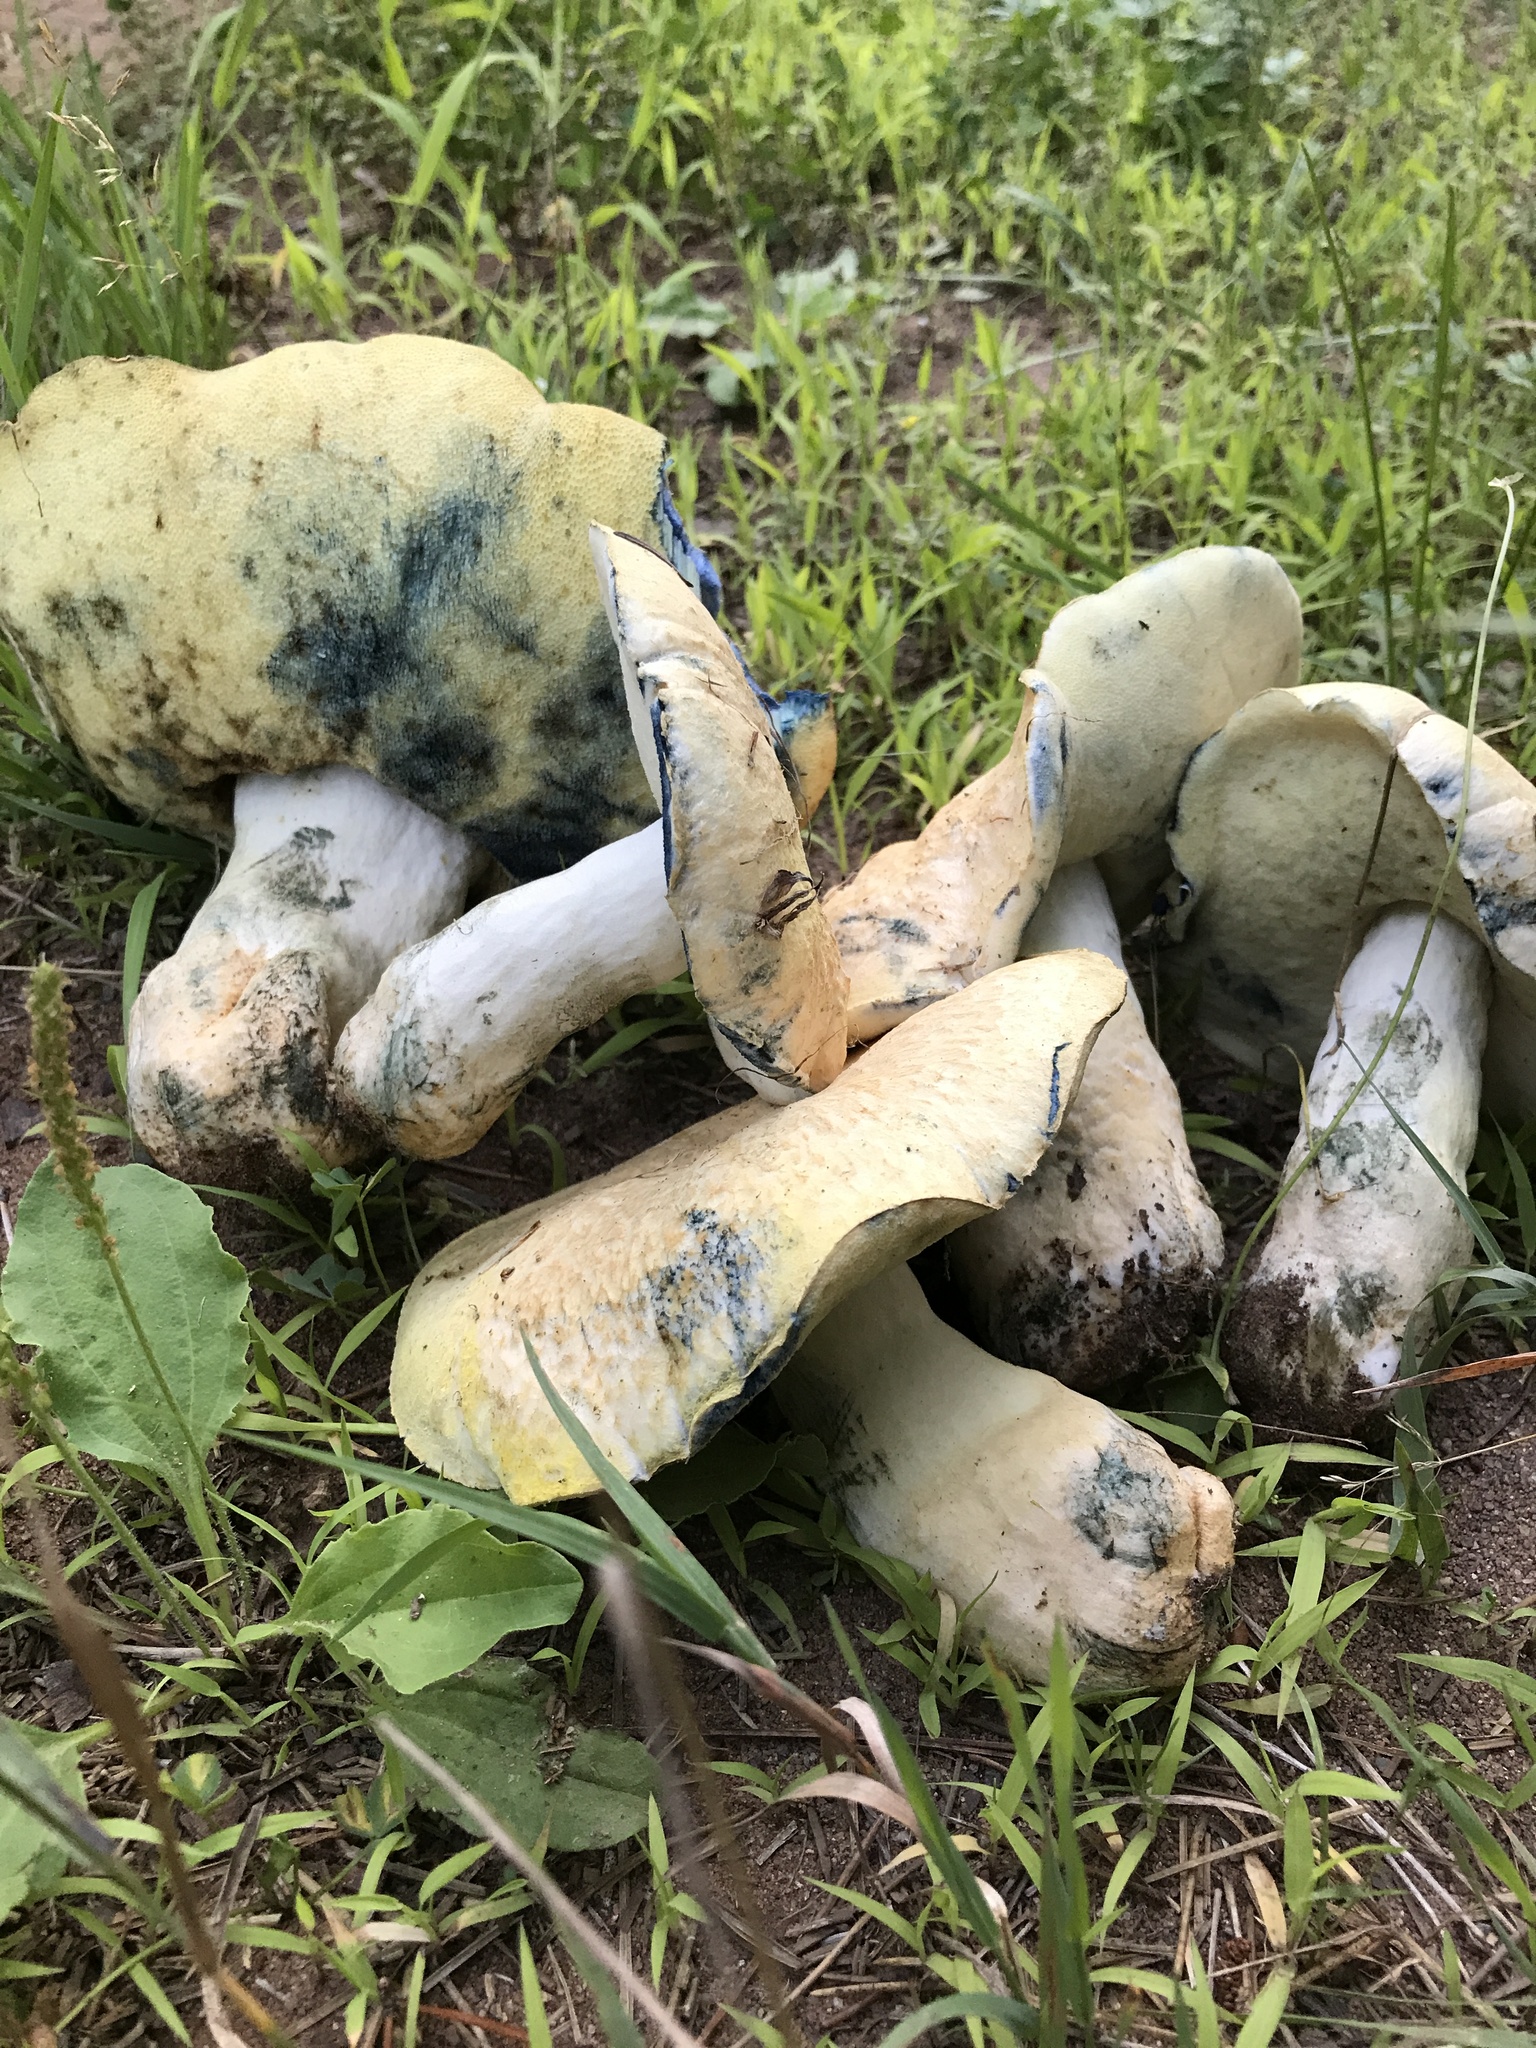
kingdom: Fungi
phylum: Basidiomycota
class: Agaricomycetes
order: Boletales
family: Gyroporaceae
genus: Gyroporus
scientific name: Gyroporus cyanescens
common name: Cornflower bolete
